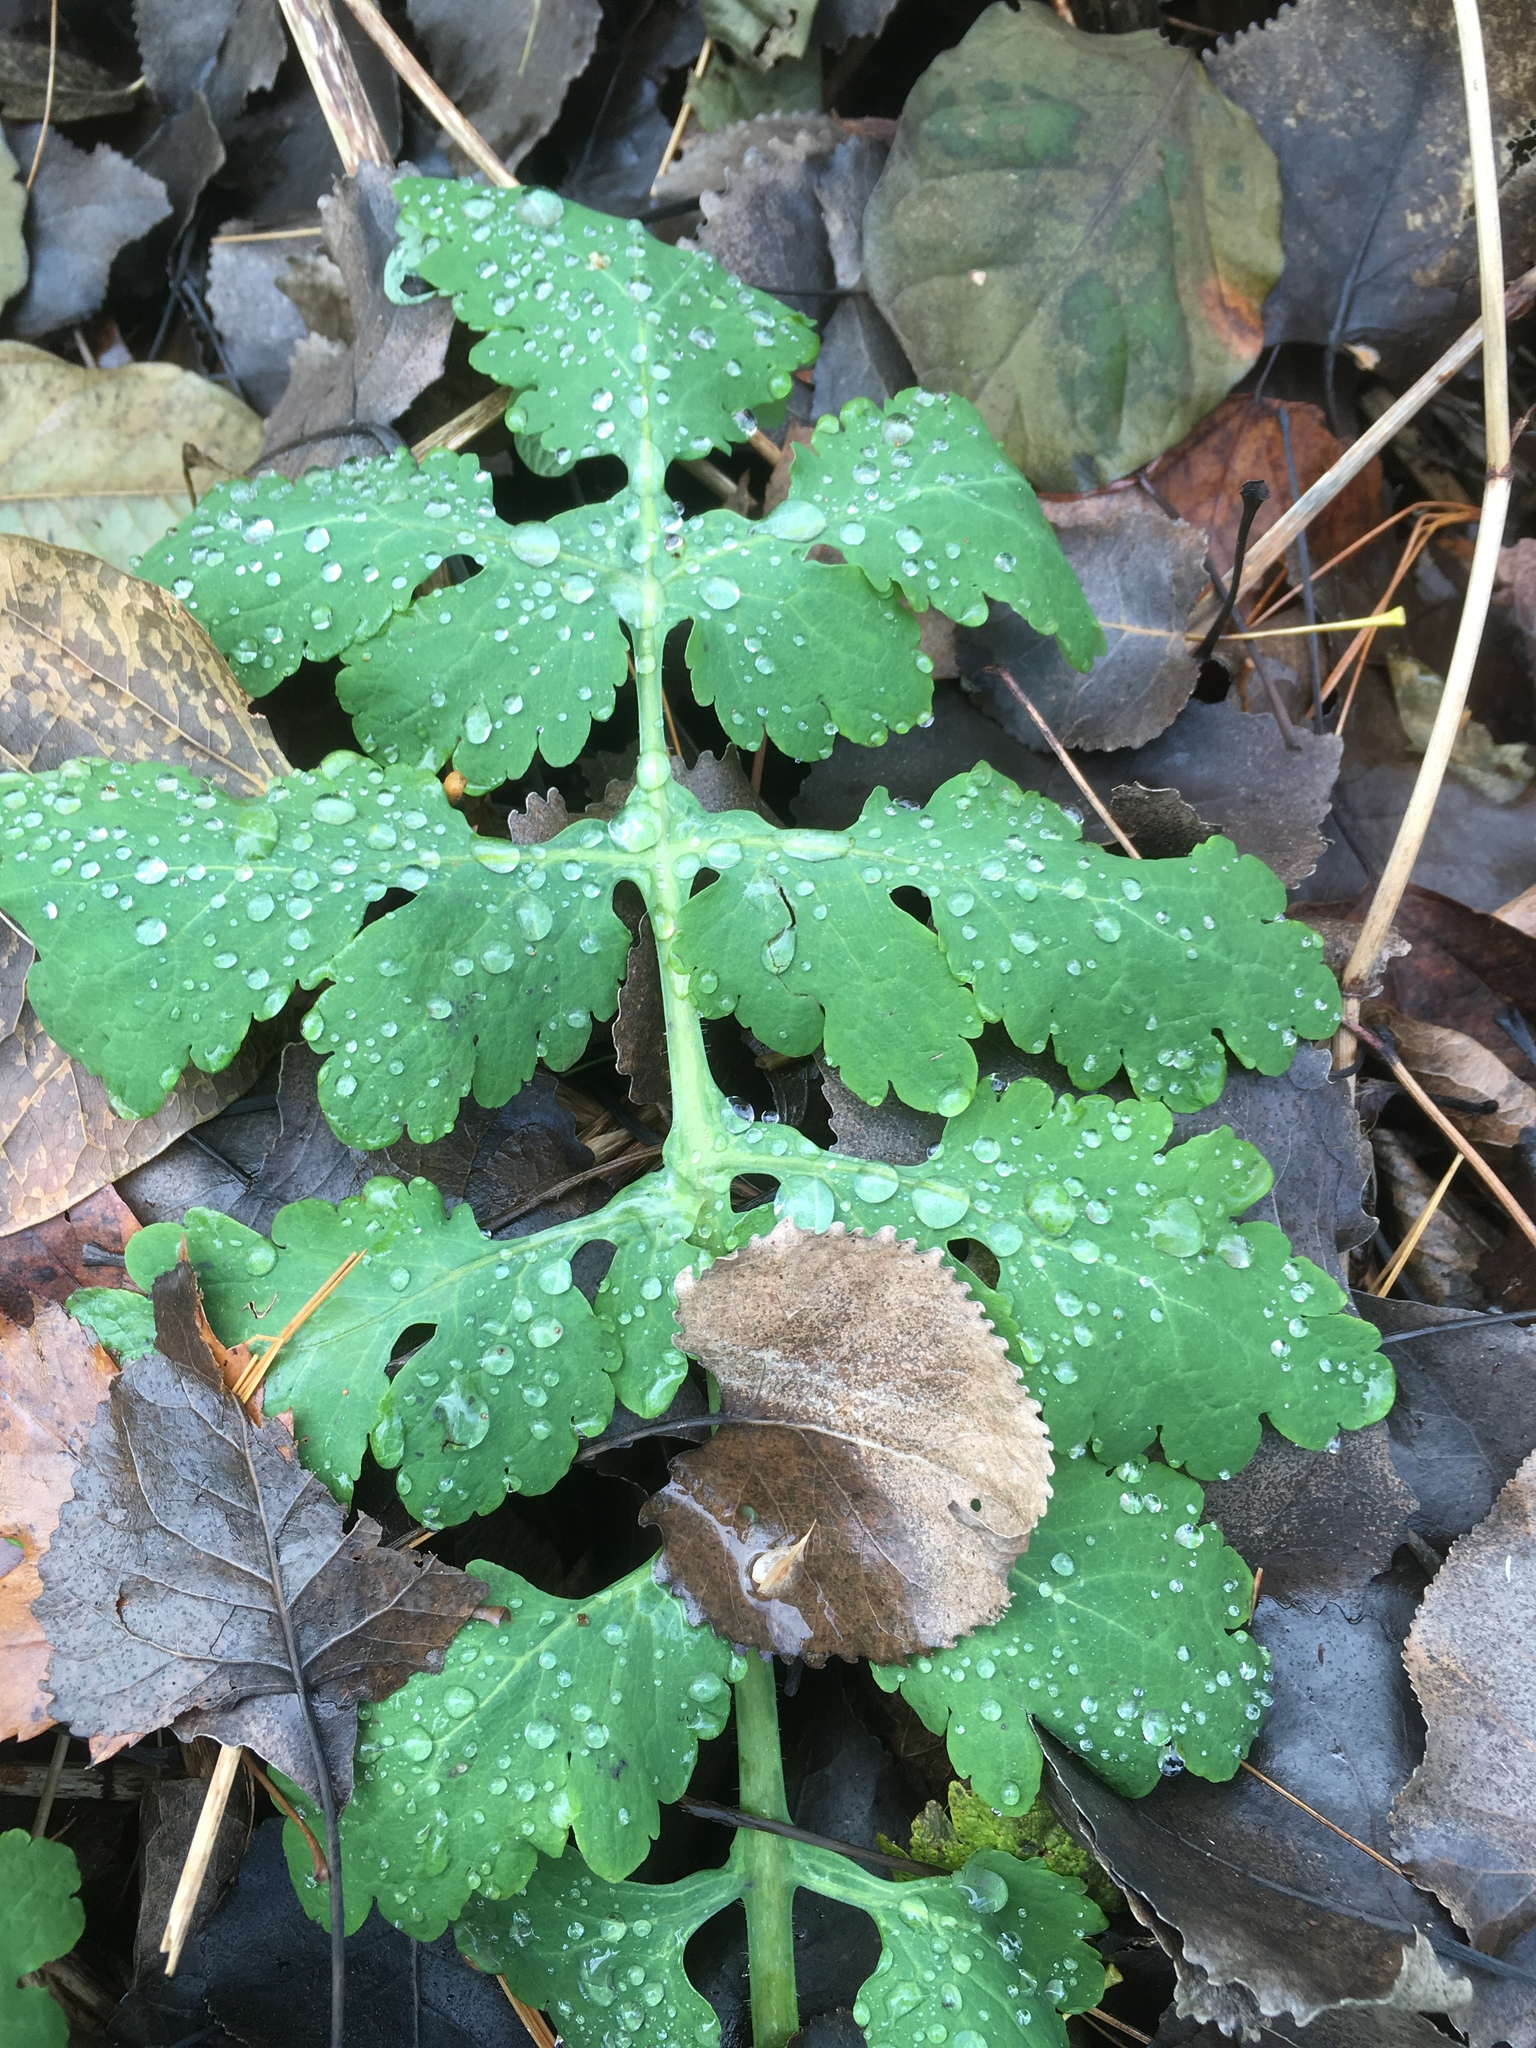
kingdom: Plantae
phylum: Tracheophyta
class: Magnoliopsida
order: Ranunculales
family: Papaveraceae
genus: Chelidonium
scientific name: Chelidonium majus
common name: Greater celandine
